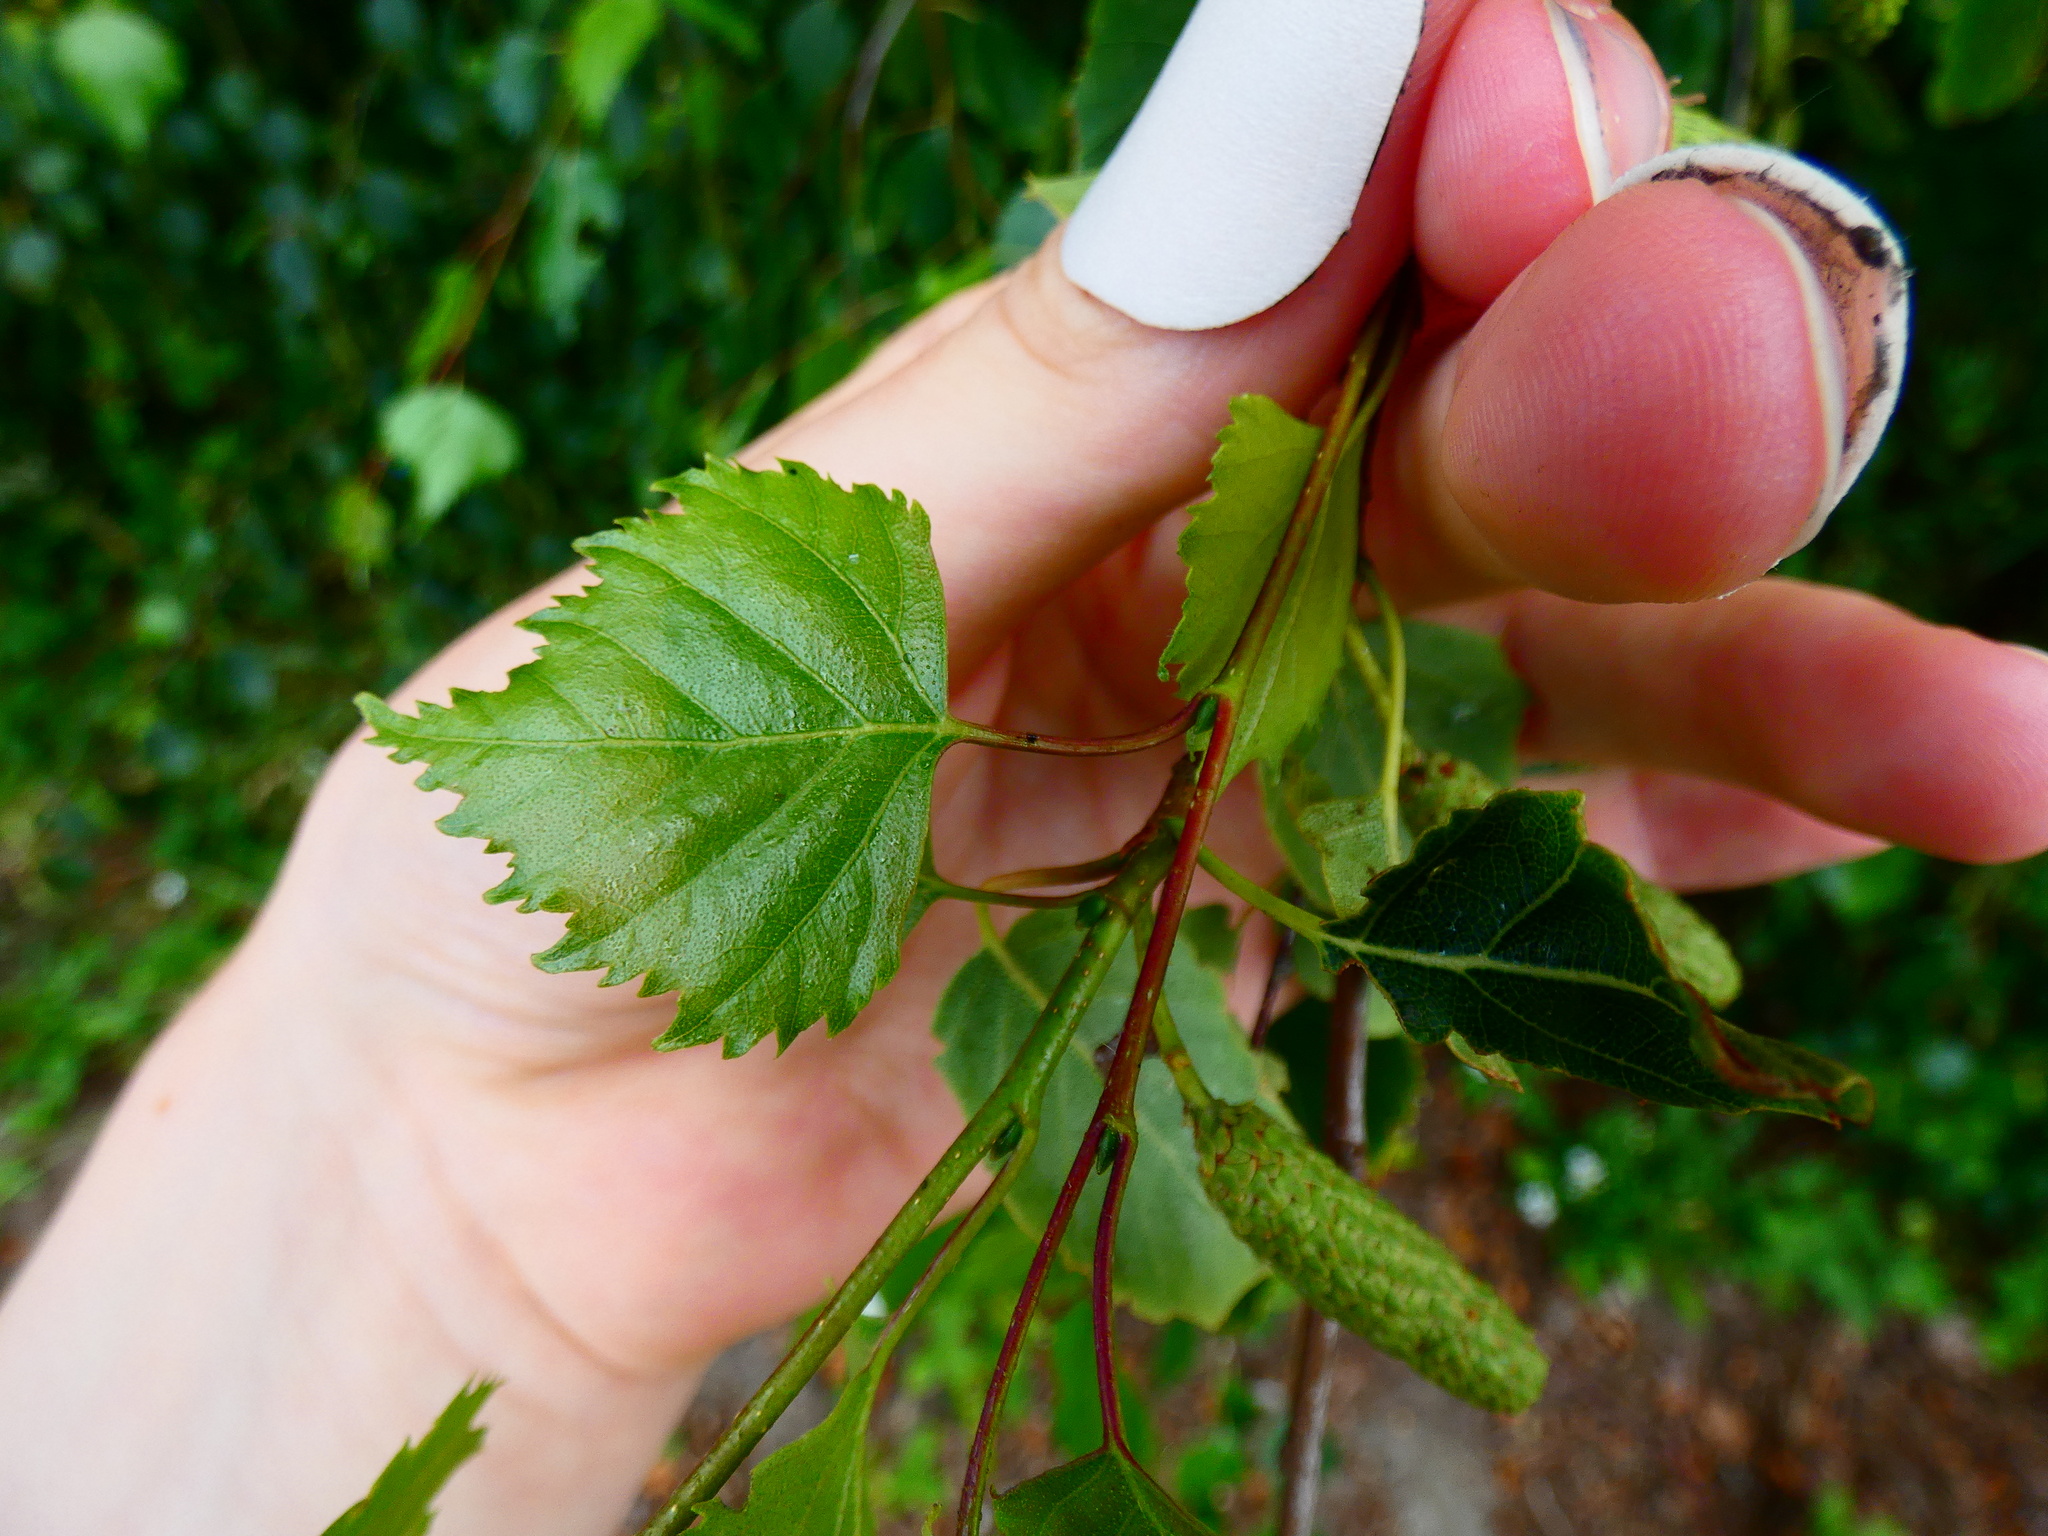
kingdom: Plantae
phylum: Tracheophyta
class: Magnoliopsida
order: Fagales
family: Betulaceae
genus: Betula
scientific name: Betula pendula
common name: Silver birch
